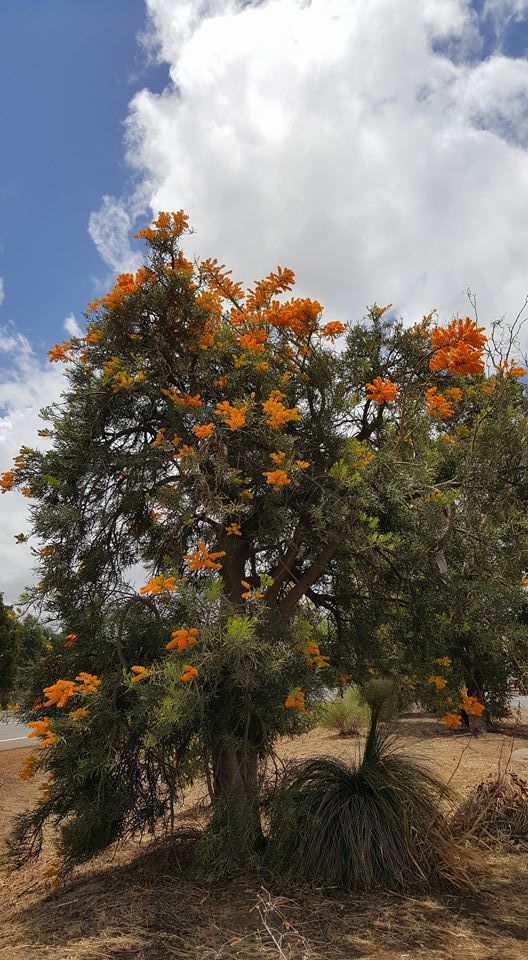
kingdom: Plantae
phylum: Tracheophyta
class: Magnoliopsida
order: Santalales
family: Loranthaceae
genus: Nuytsia
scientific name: Nuytsia floribunda
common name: Western australian christmastree
